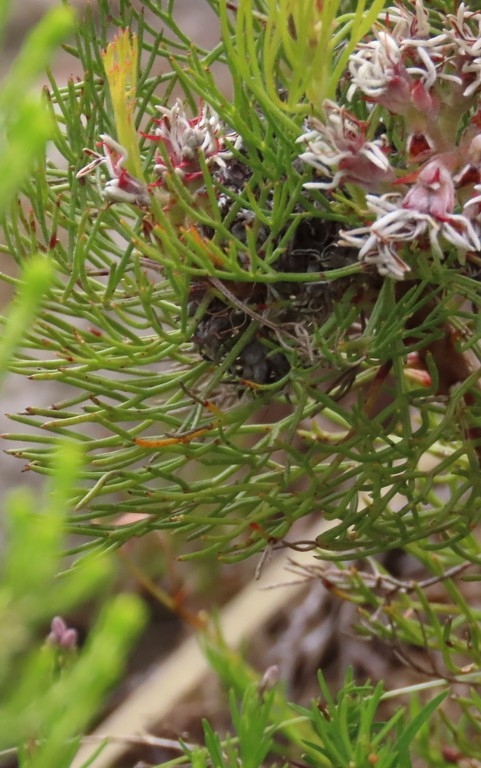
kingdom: Plantae
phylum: Tracheophyta
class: Magnoliopsida
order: Proteales
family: Proteaceae
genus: Serruria
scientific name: Serruria ascendens
